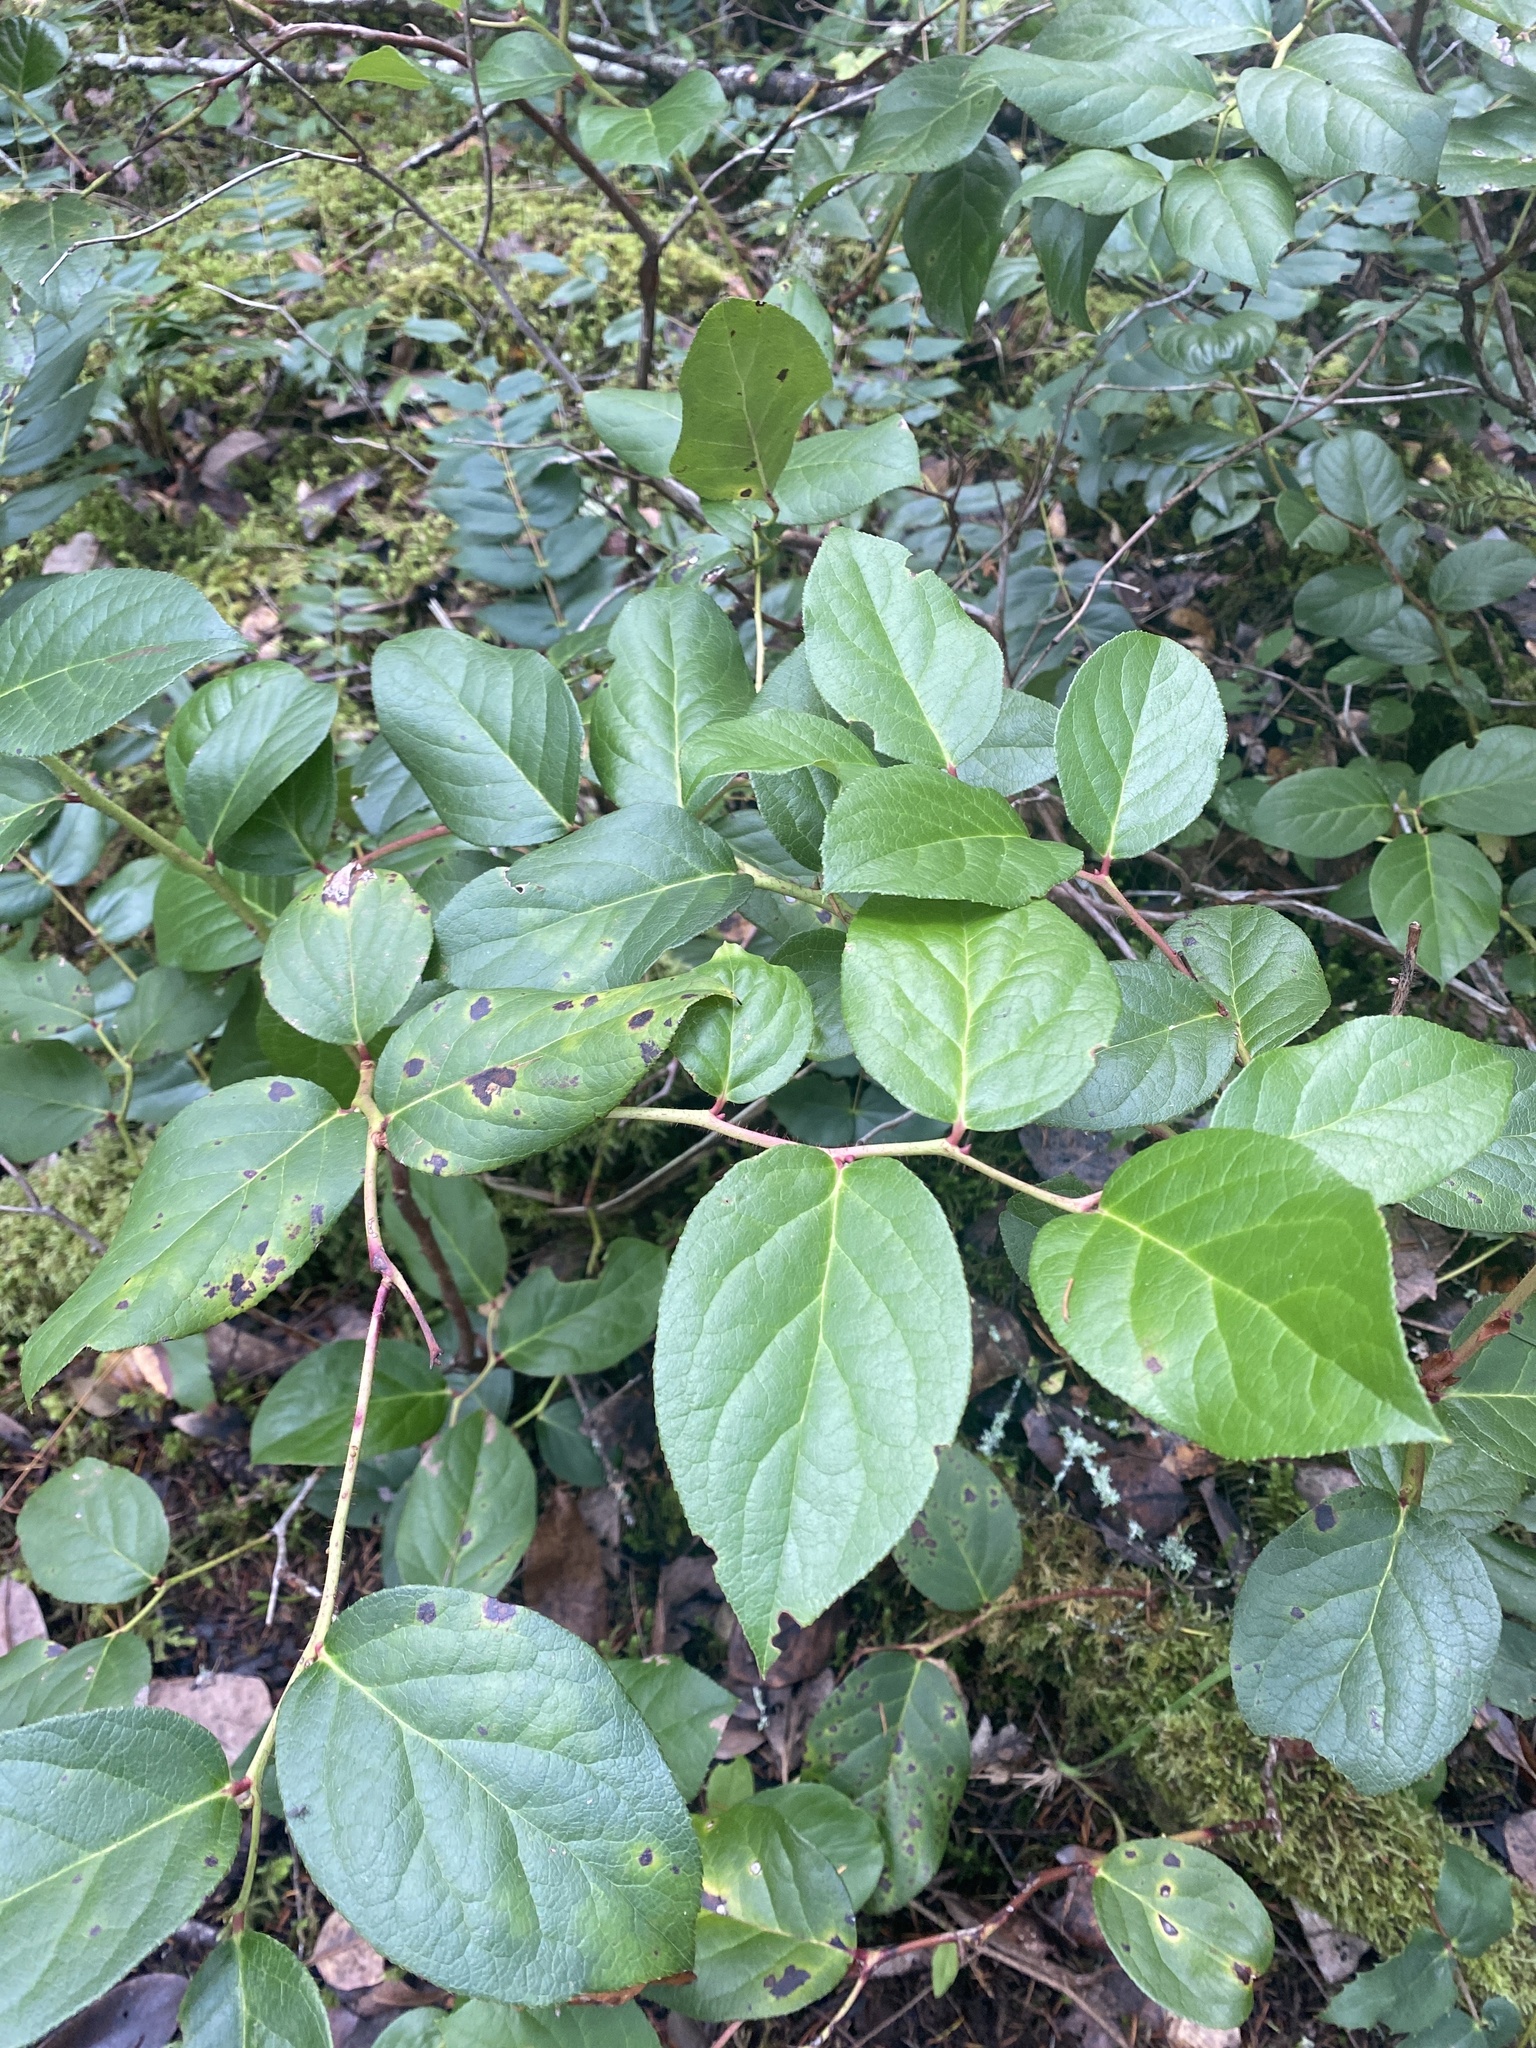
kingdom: Plantae
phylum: Tracheophyta
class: Magnoliopsida
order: Ericales
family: Ericaceae
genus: Gaultheria
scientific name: Gaultheria shallon
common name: Shallon
